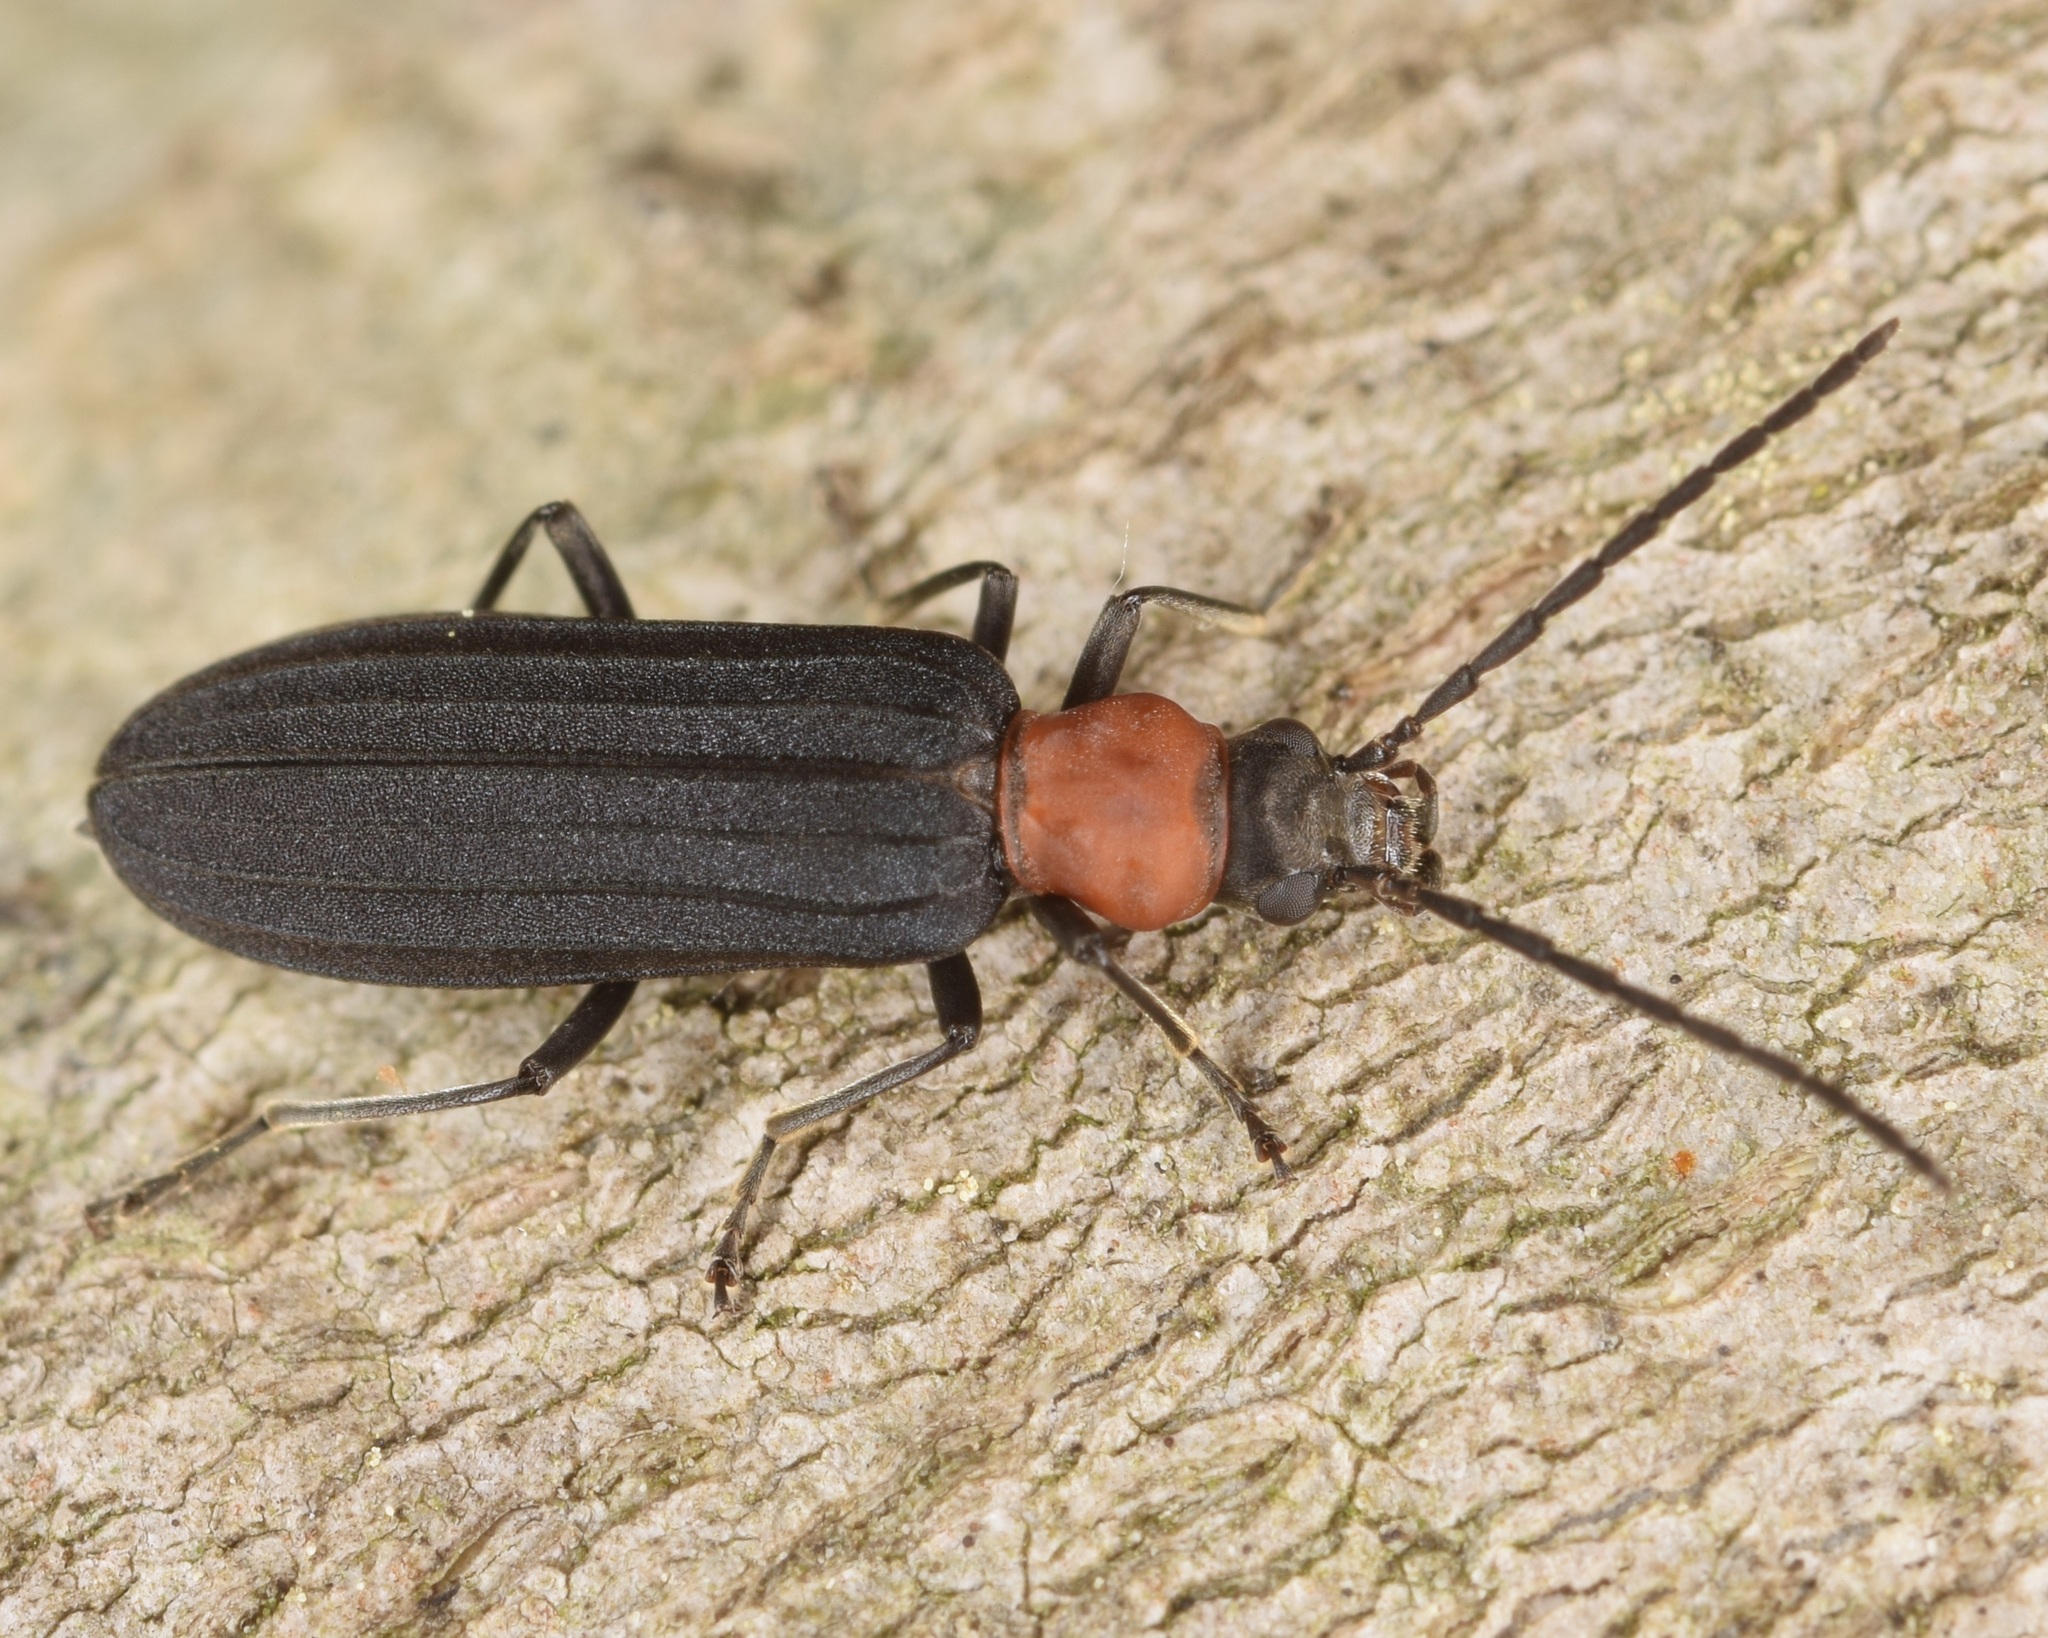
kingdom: Animalia
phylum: Arthropoda
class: Insecta
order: Coleoptera
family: Oedemeridae
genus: Ischnomera
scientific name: Ischnomera
